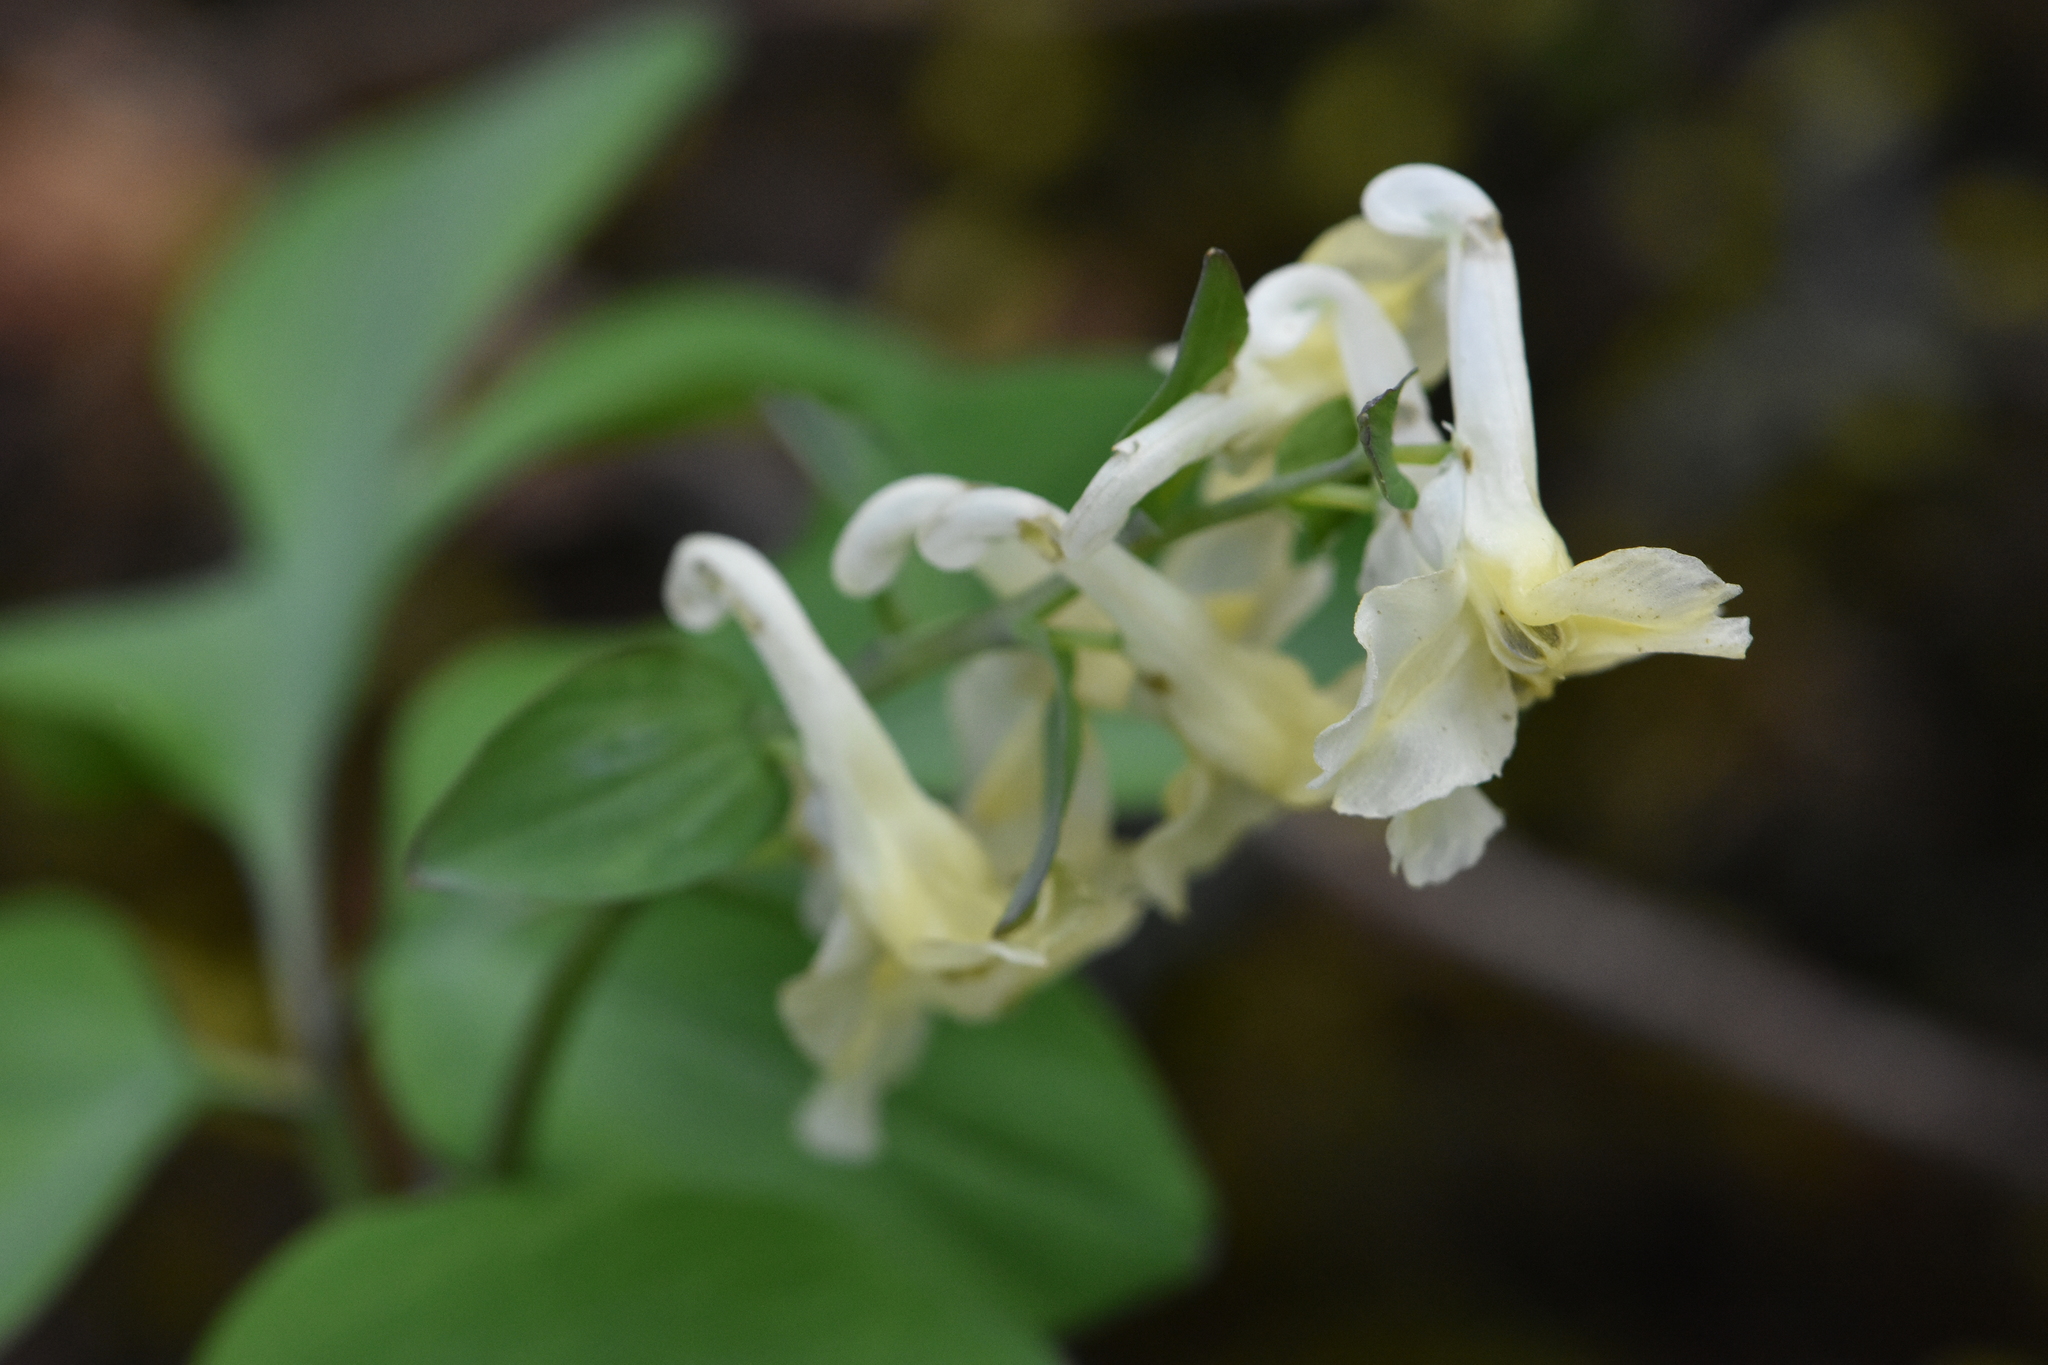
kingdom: Plantae
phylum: Tracheophyta
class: Magnoliopsida
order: Ranunculales
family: Papaveraceae
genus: Corydalis
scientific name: Corydalis cava
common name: Hollowroot
